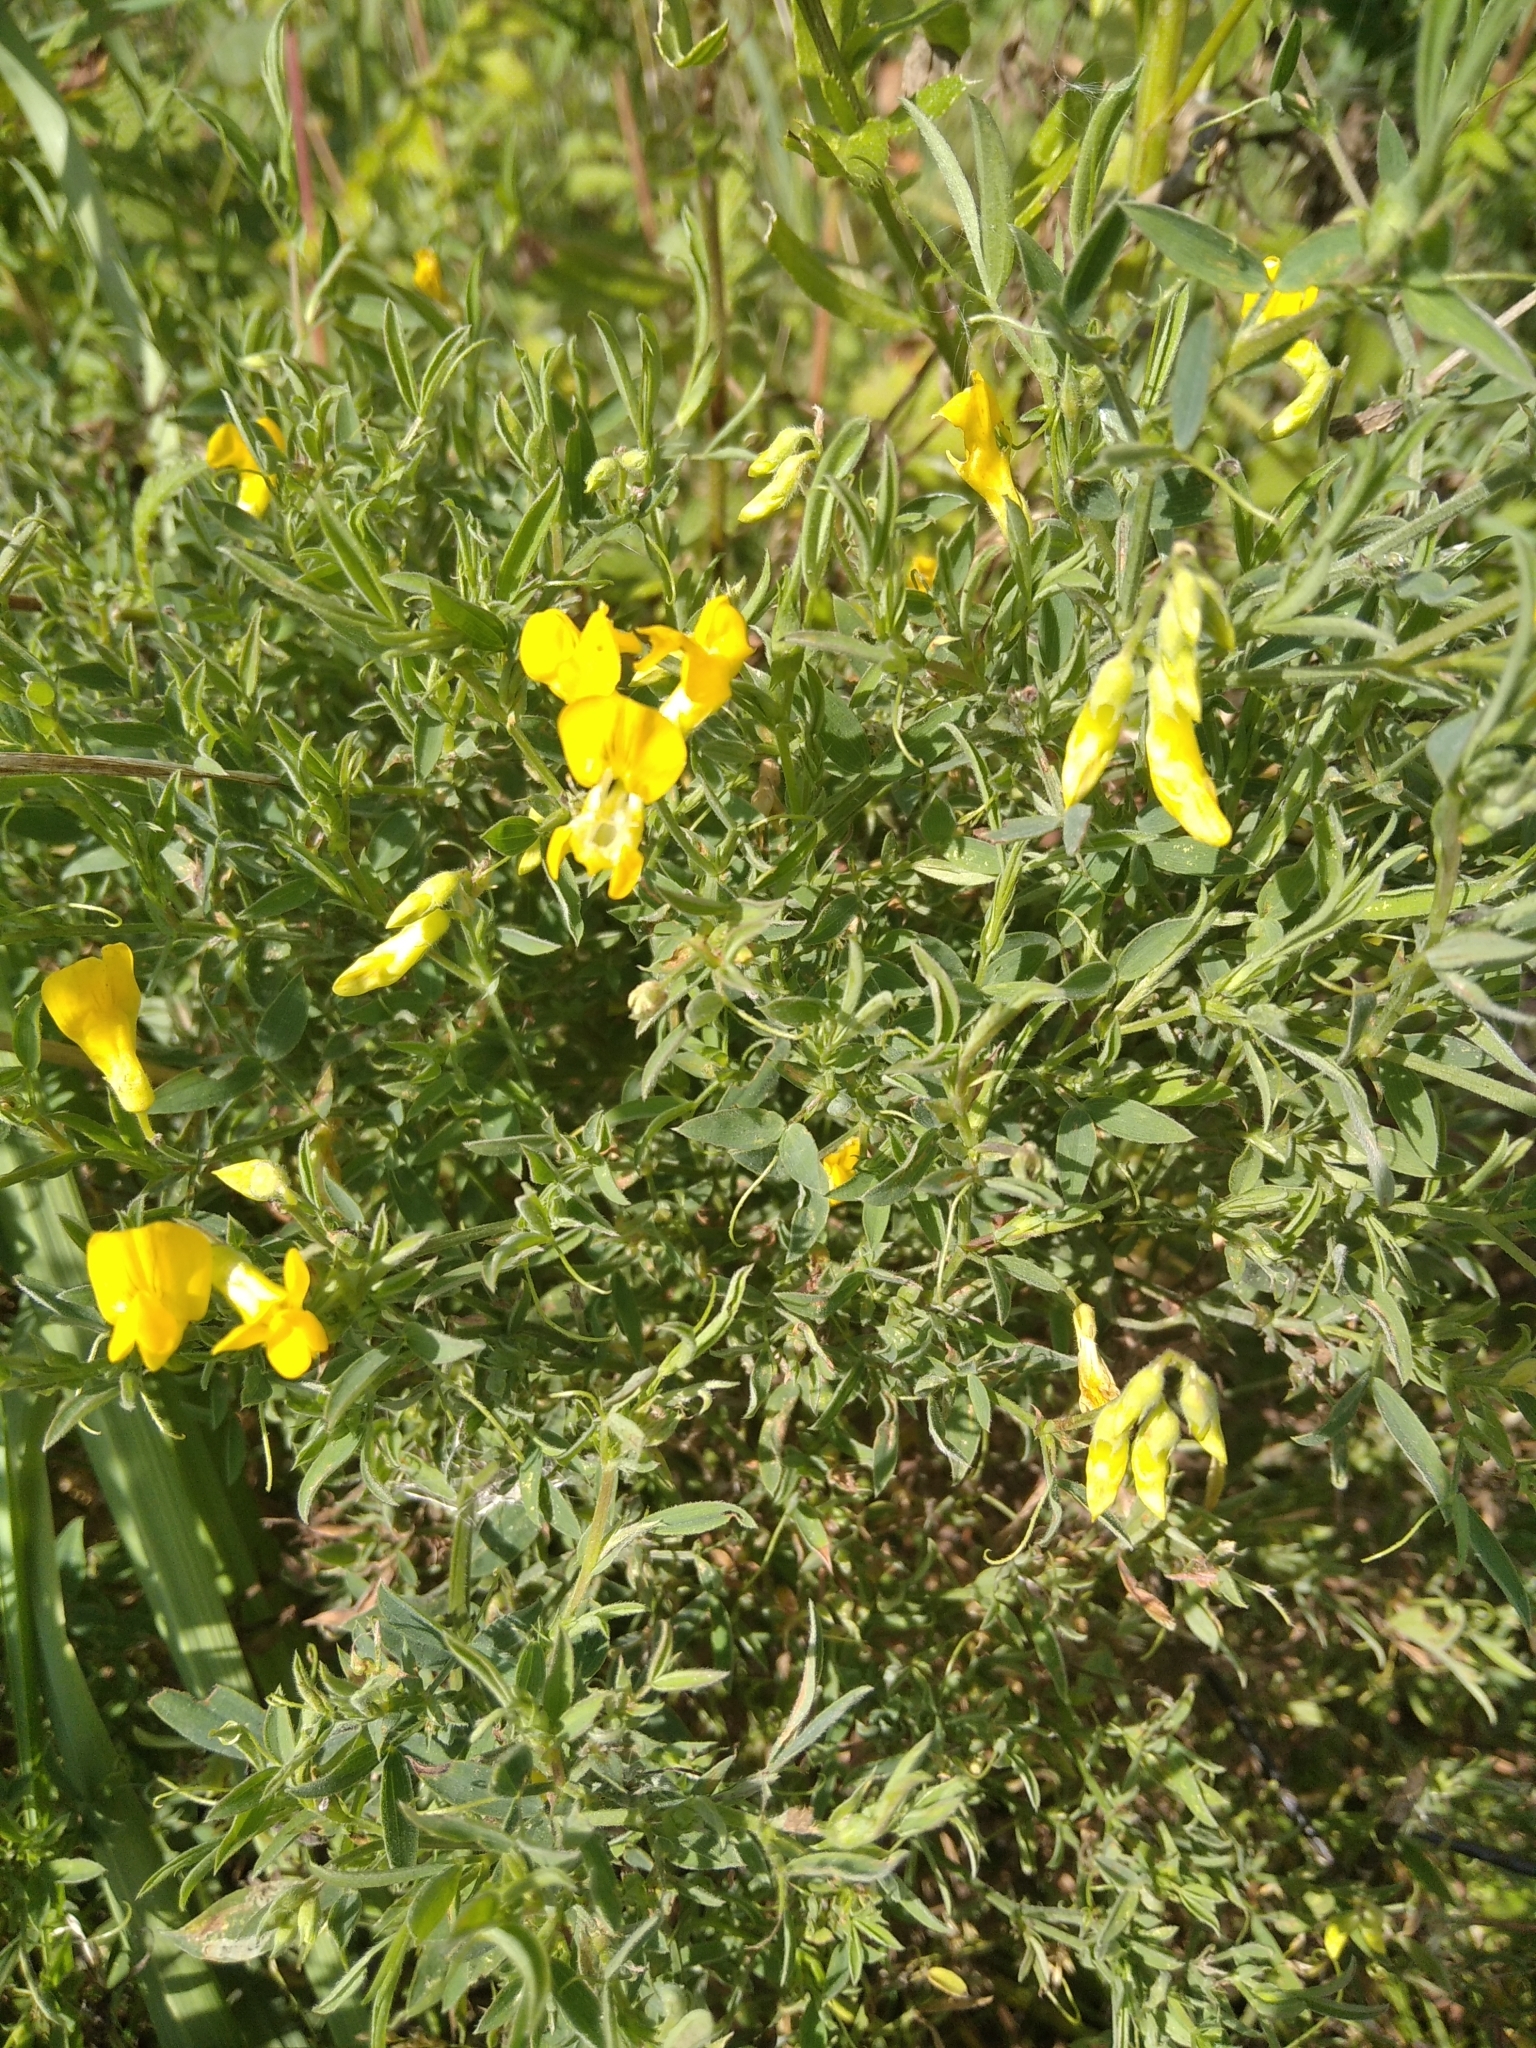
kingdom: Plantae
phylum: Tracheophyta
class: Magnoliopsida
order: Fabales
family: Fabaceae
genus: Lathyrus
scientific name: Lathyrus pratensis
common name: Meadow vetchling
